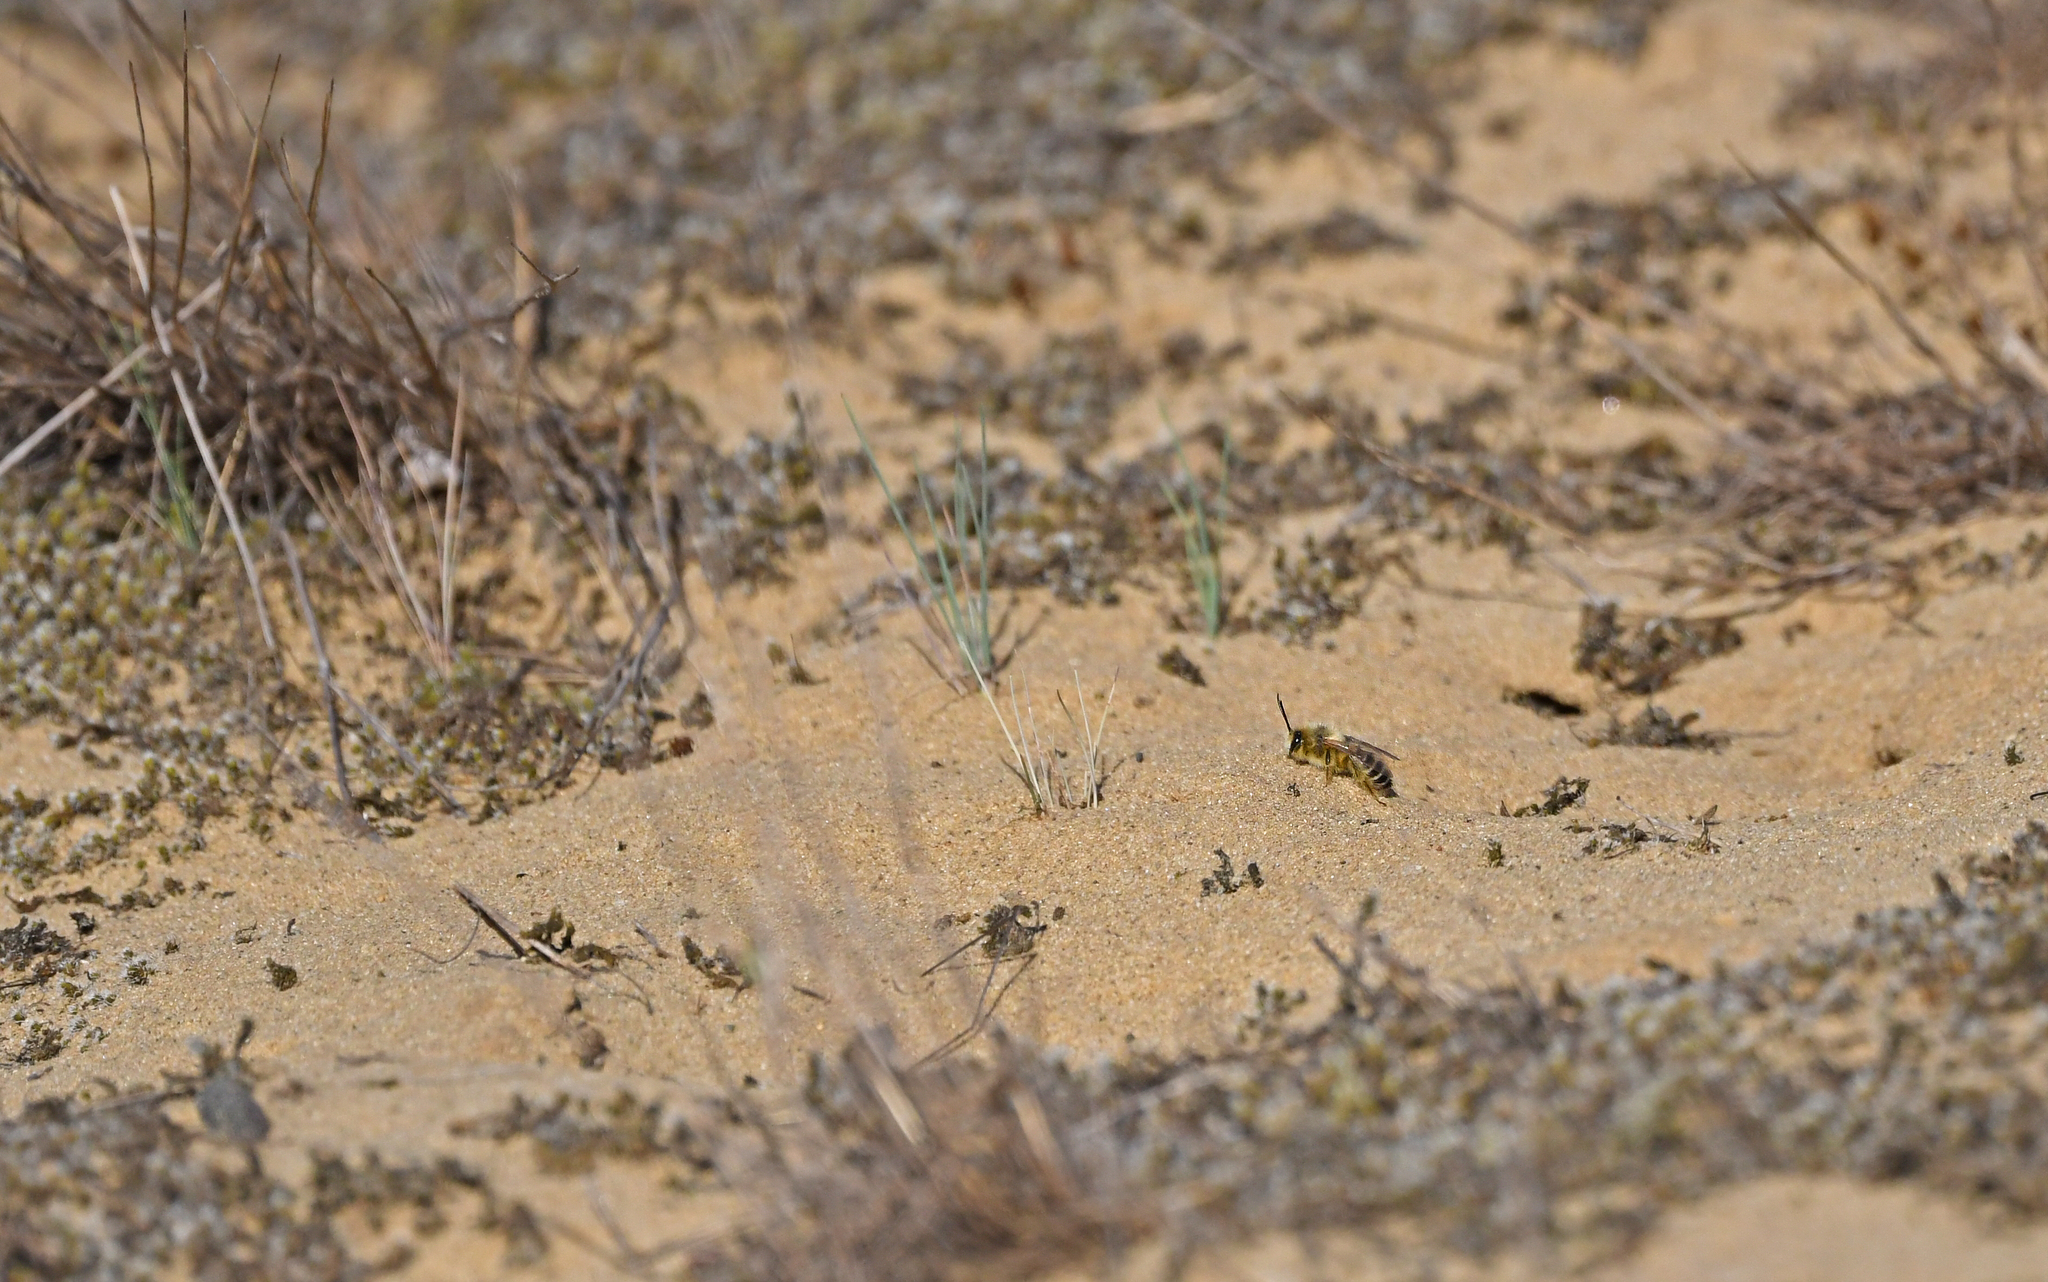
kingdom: Animalia
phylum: Arthropoda
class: Insecta
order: Hymenoptera
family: Melittidae
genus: Dasypoda
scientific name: Dasypoda hirtipes
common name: Pantaloon bee
